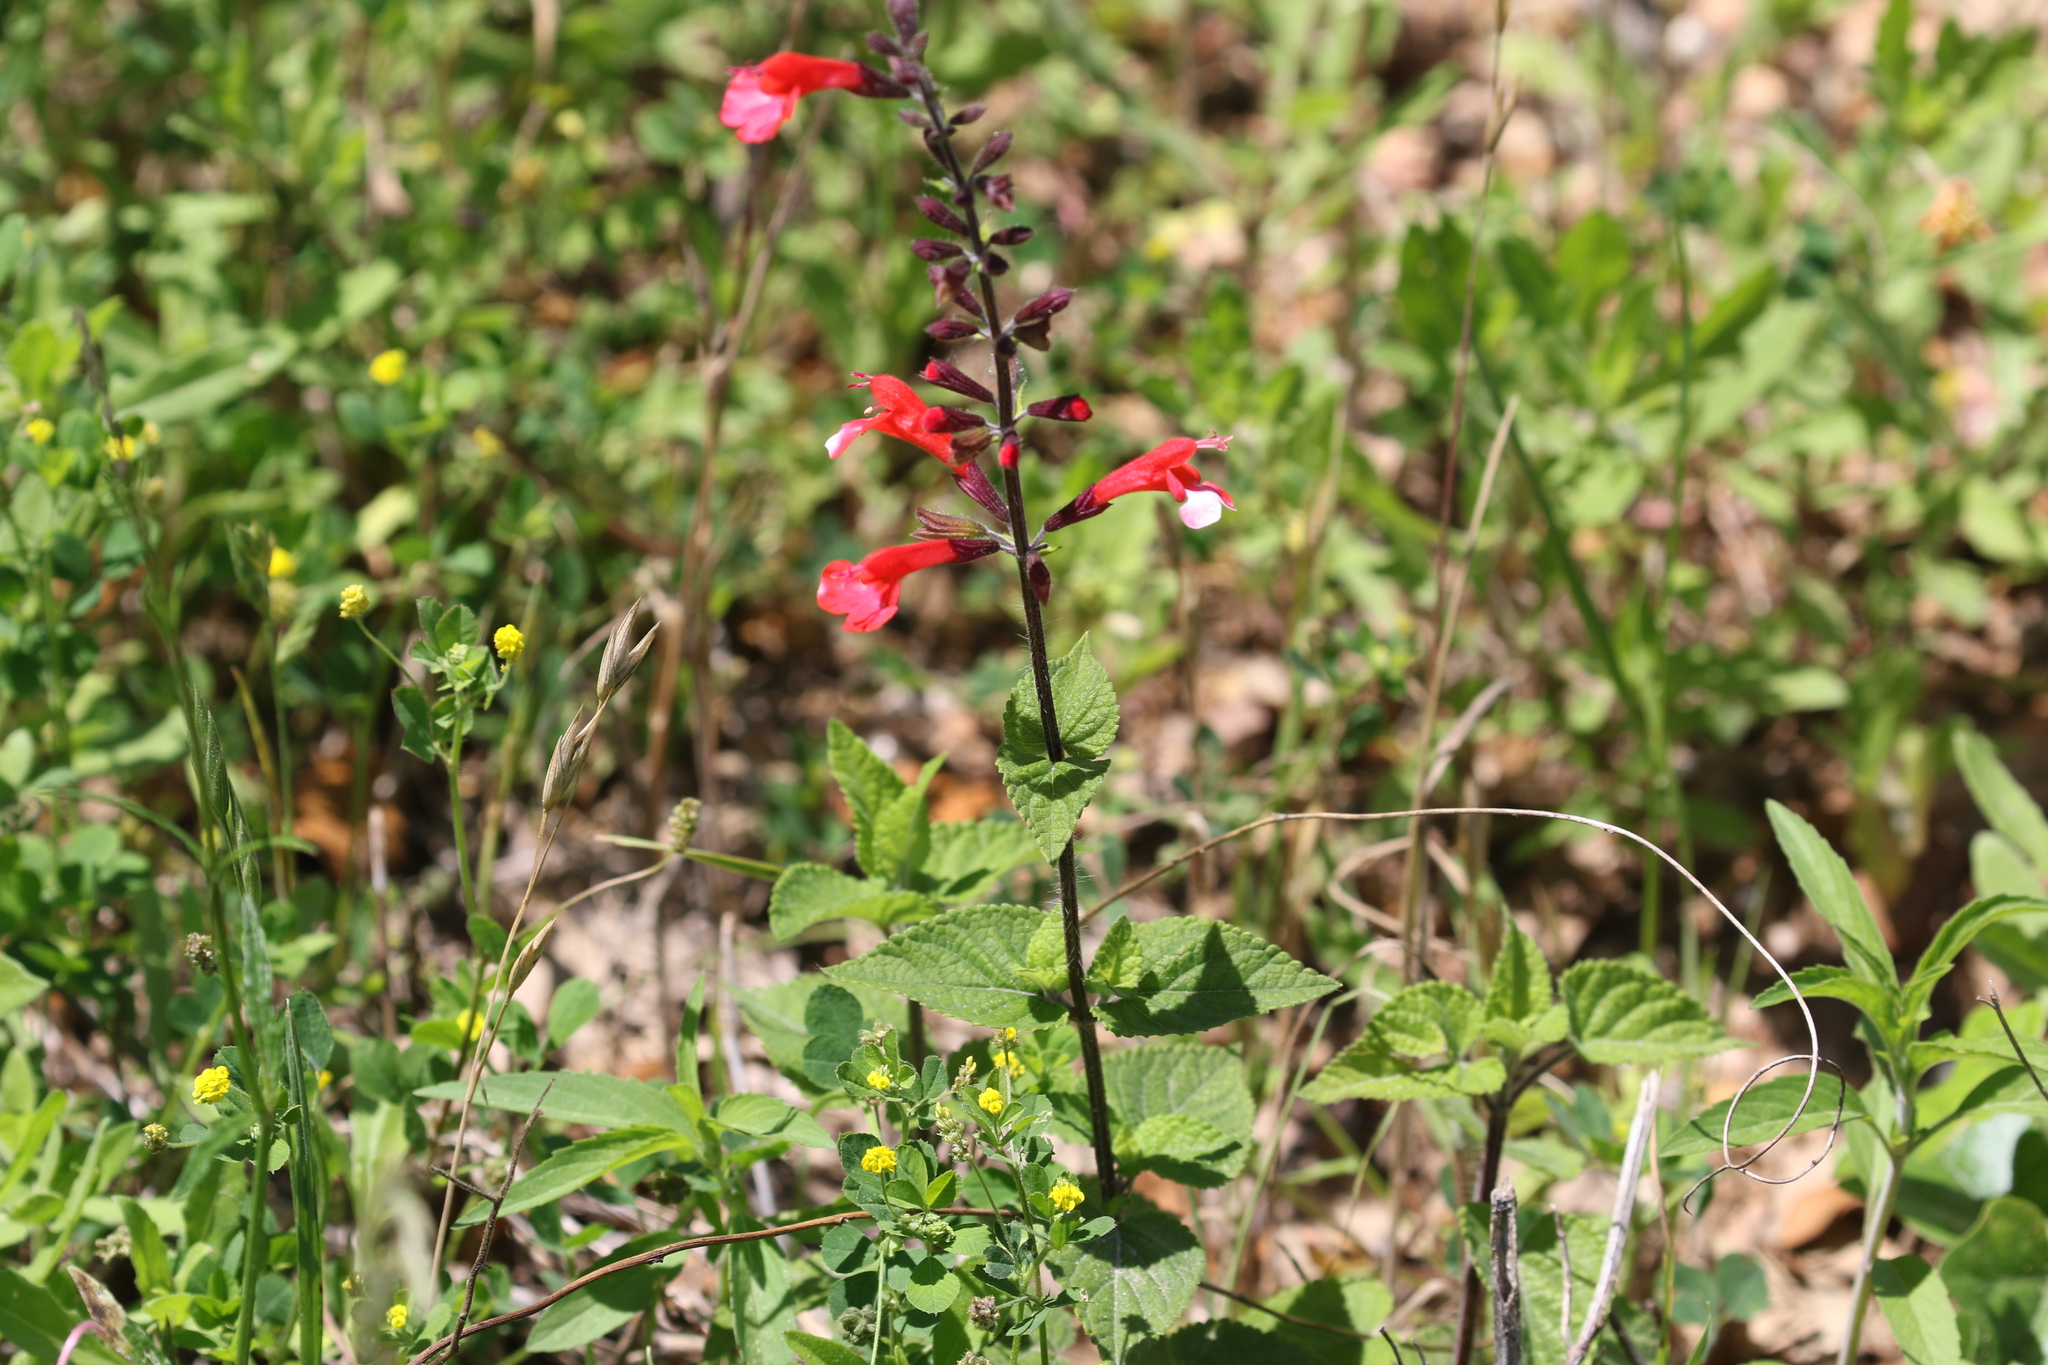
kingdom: Plantae
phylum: Tracheophyta
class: Magnoliopsida
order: Lamiales
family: Lamiaceae
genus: Salvia
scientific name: Salvia coccinea
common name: Blood sage
